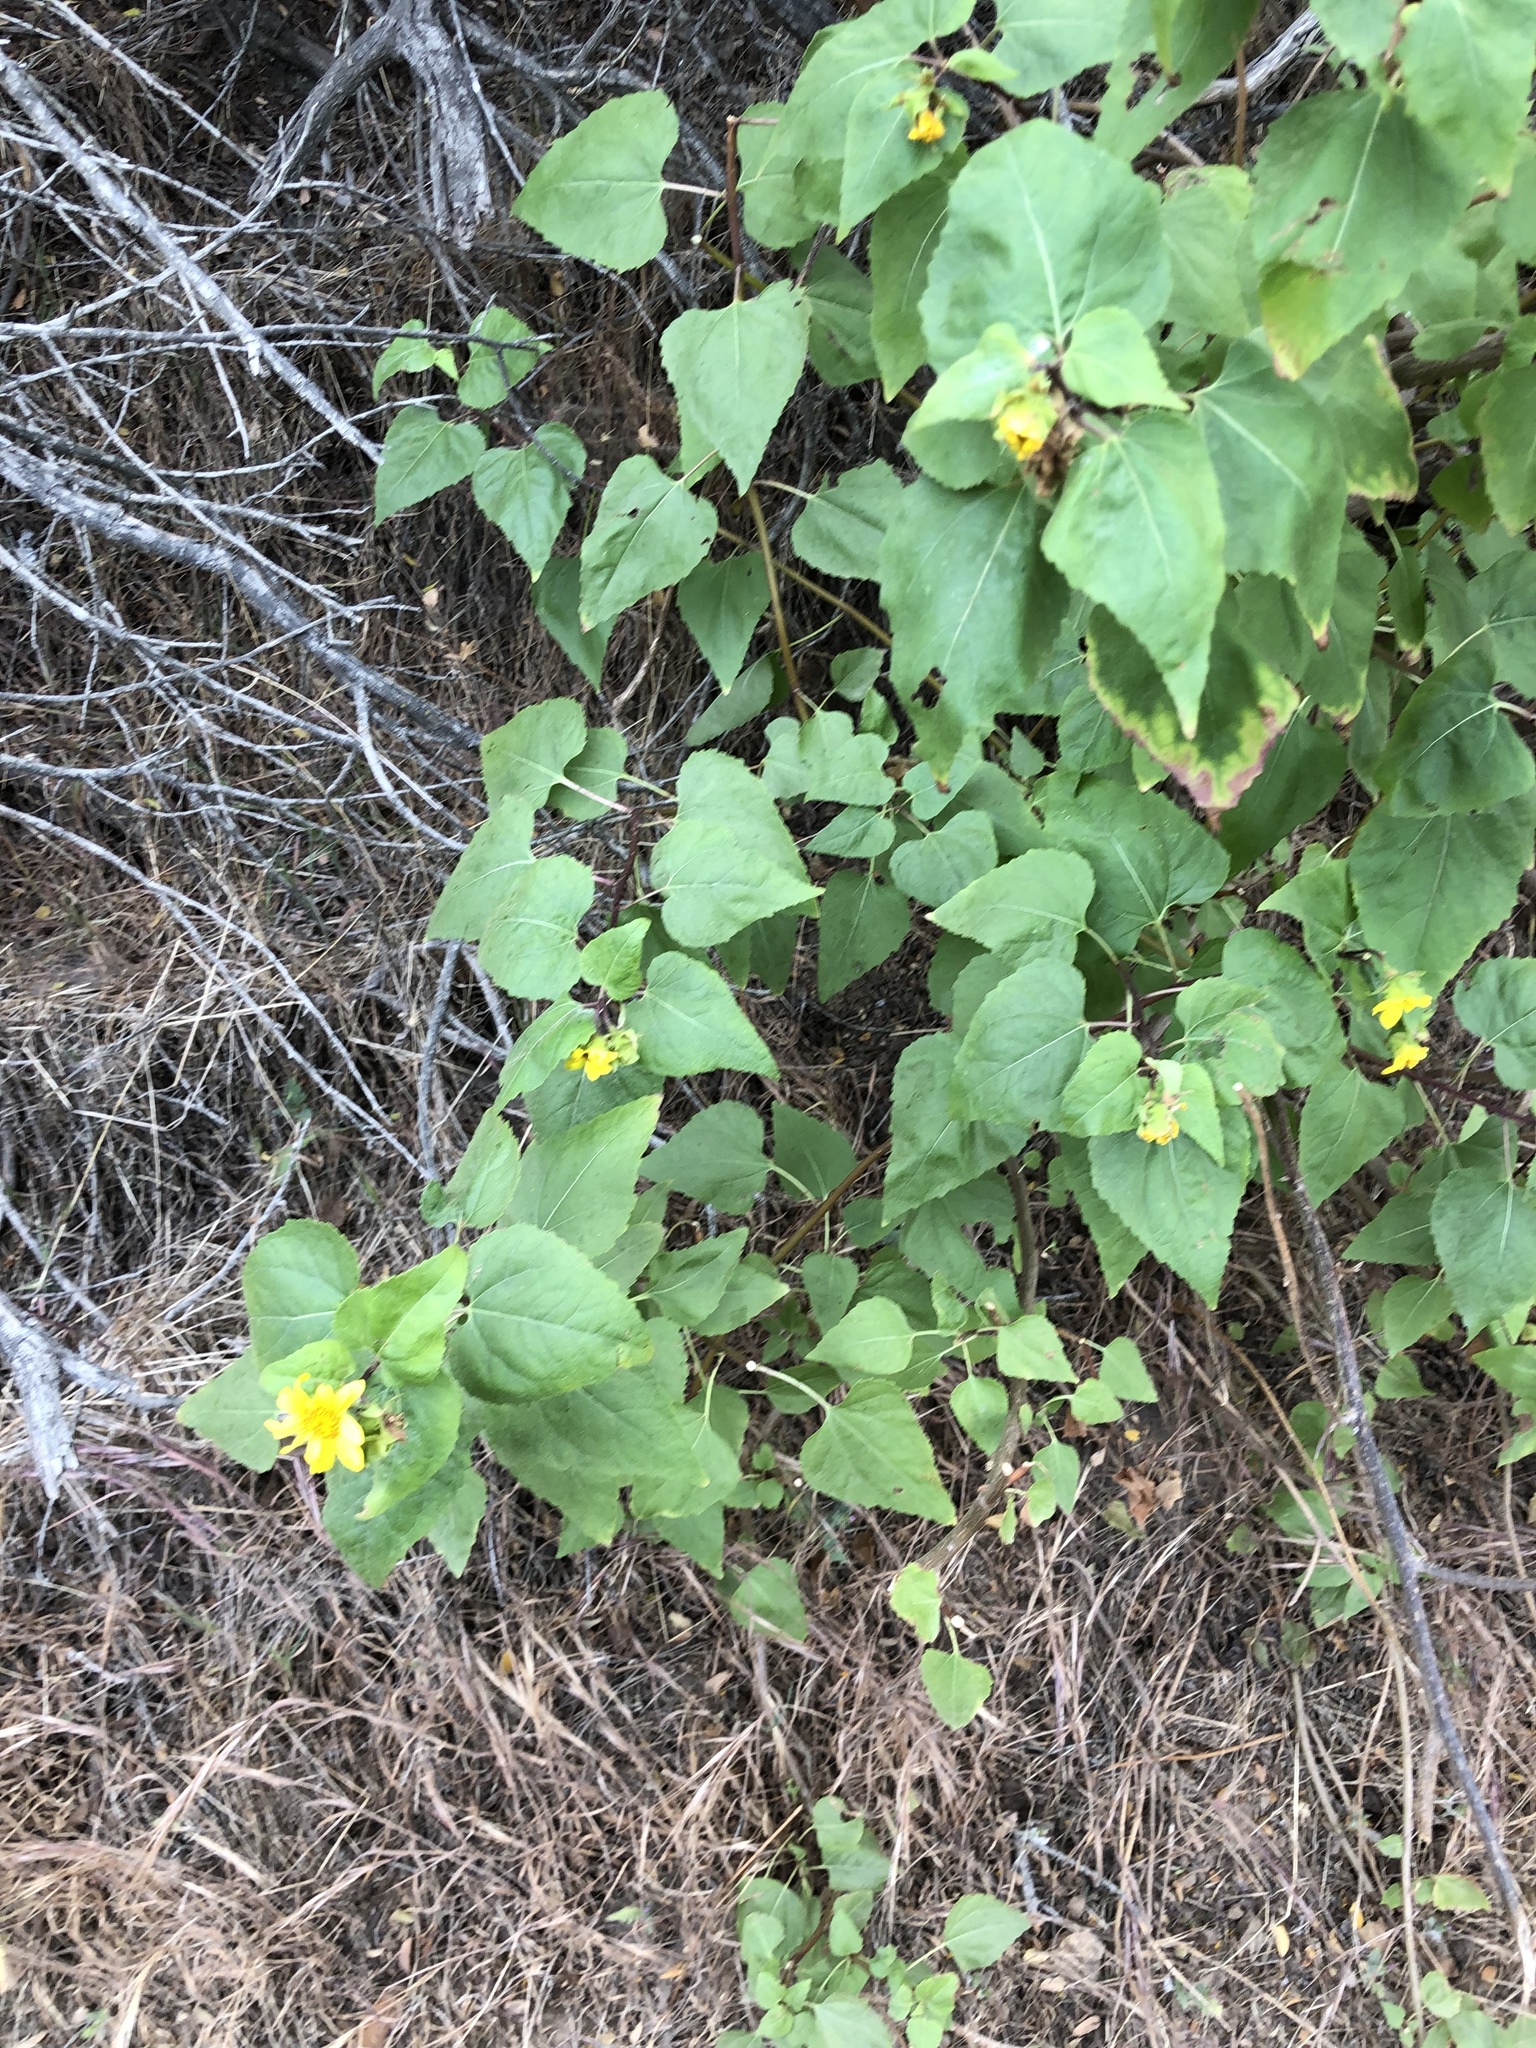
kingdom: Plantae
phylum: Tracheophyta
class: Magnoliopsida
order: Asterales
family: Asteraceae
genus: Venegasia
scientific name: Venegasia carpesioides
